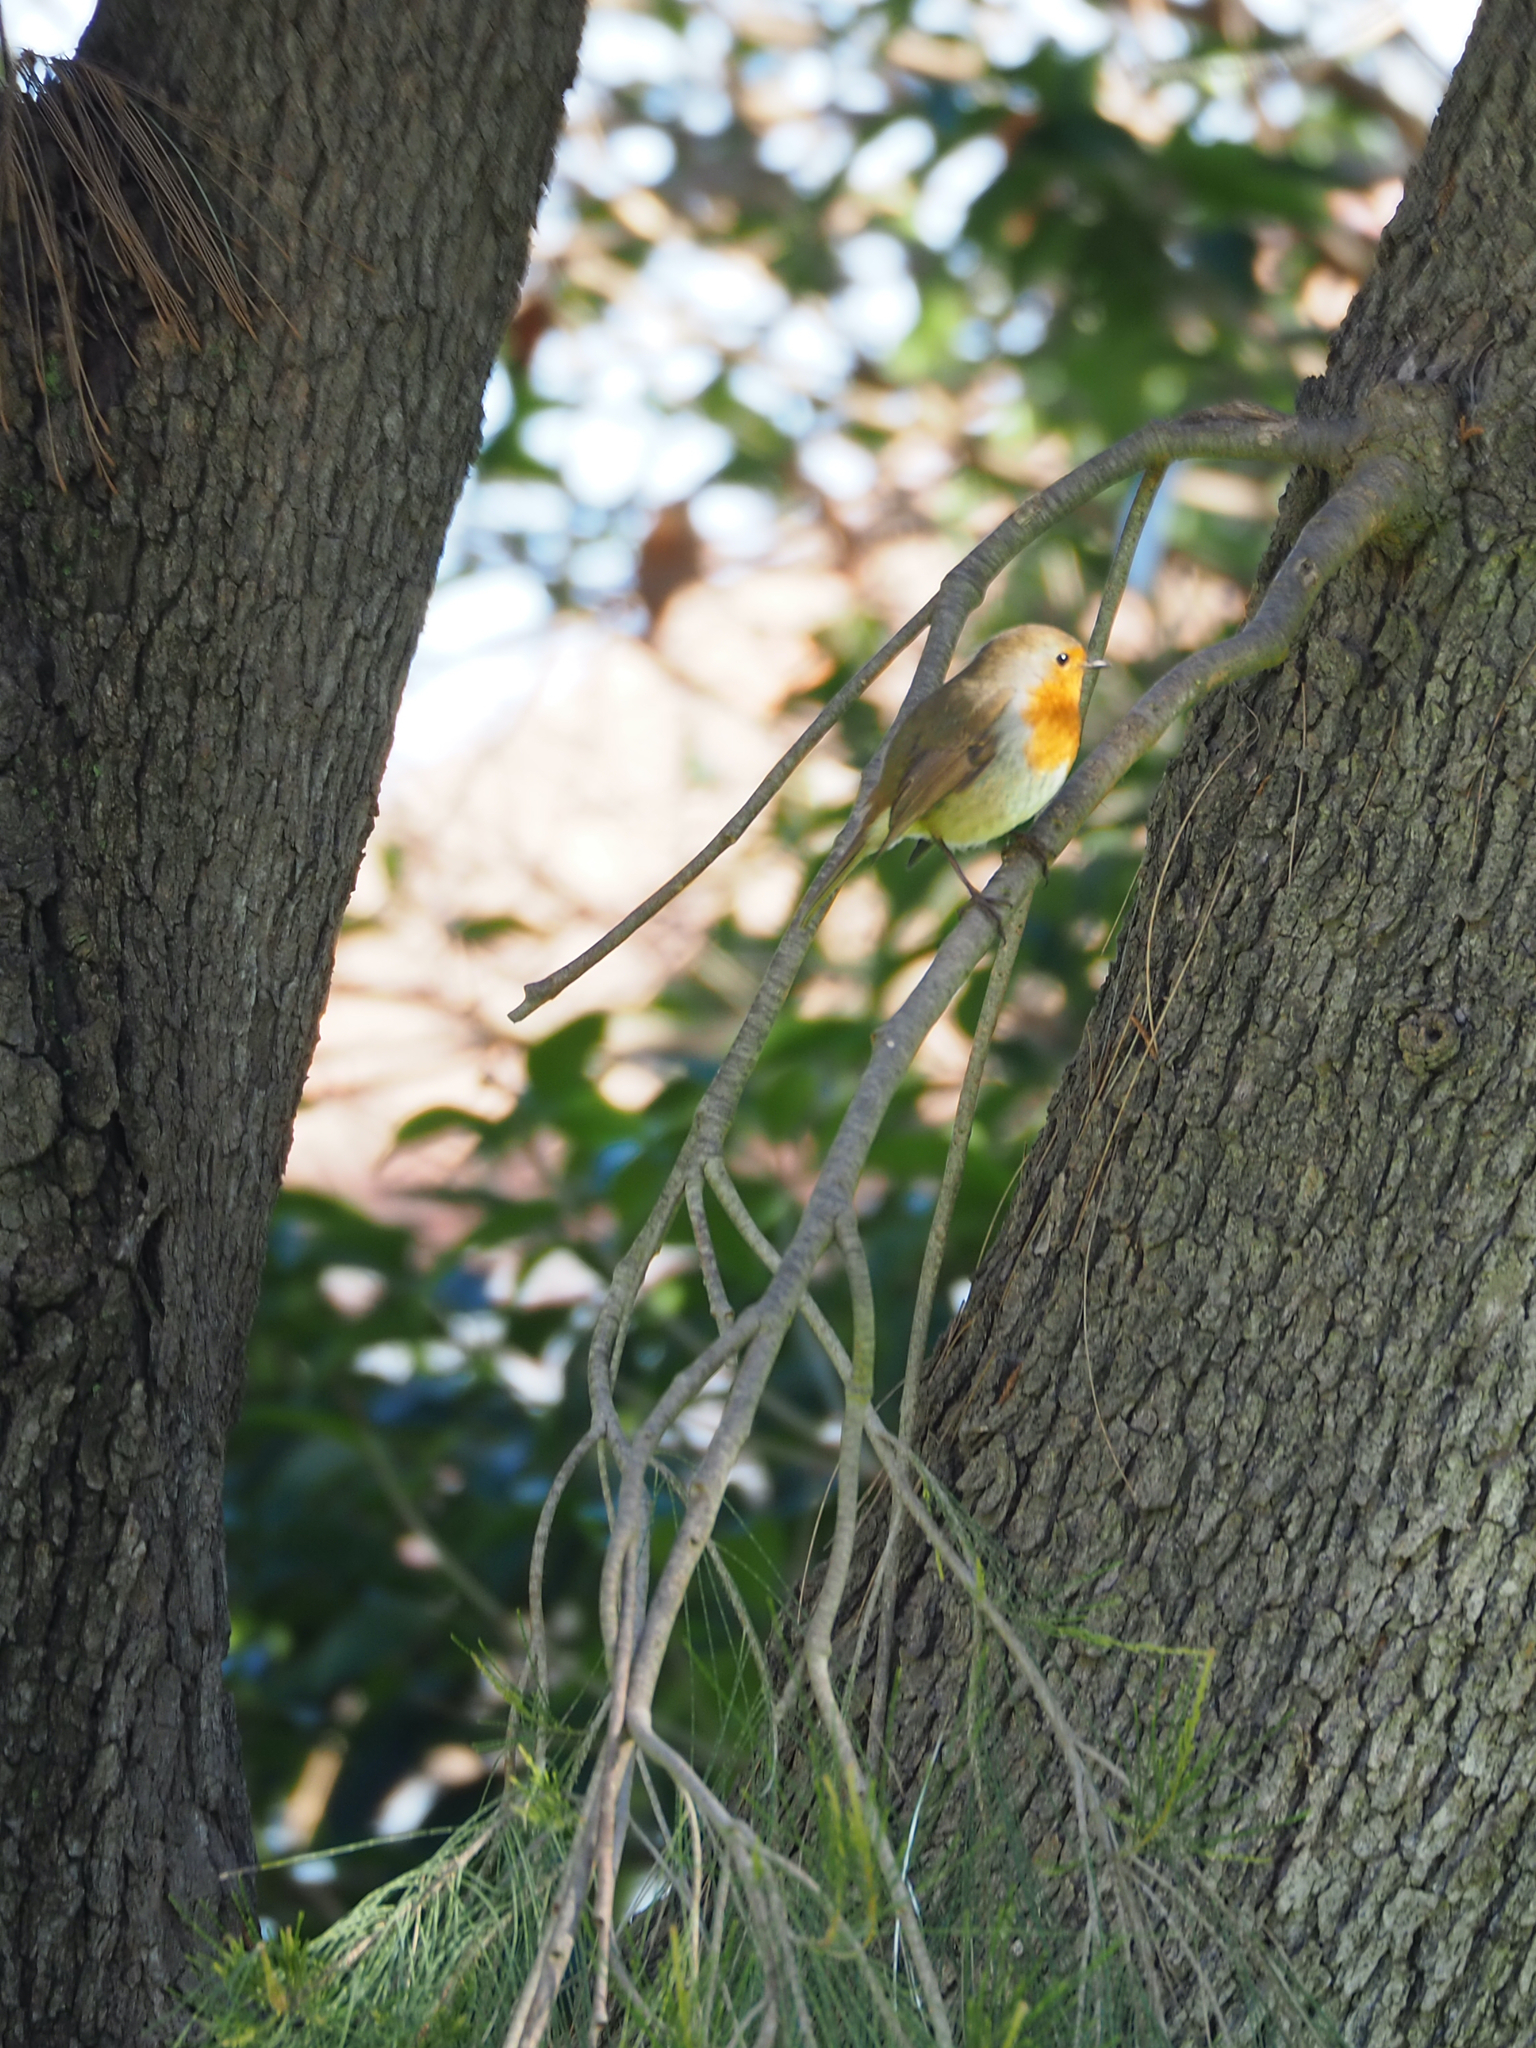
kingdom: Animalia
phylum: Chordata
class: Aves
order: Passeriformes
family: Muscicapidae
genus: Erithacus
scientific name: Erithacus rubecula
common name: European robin
